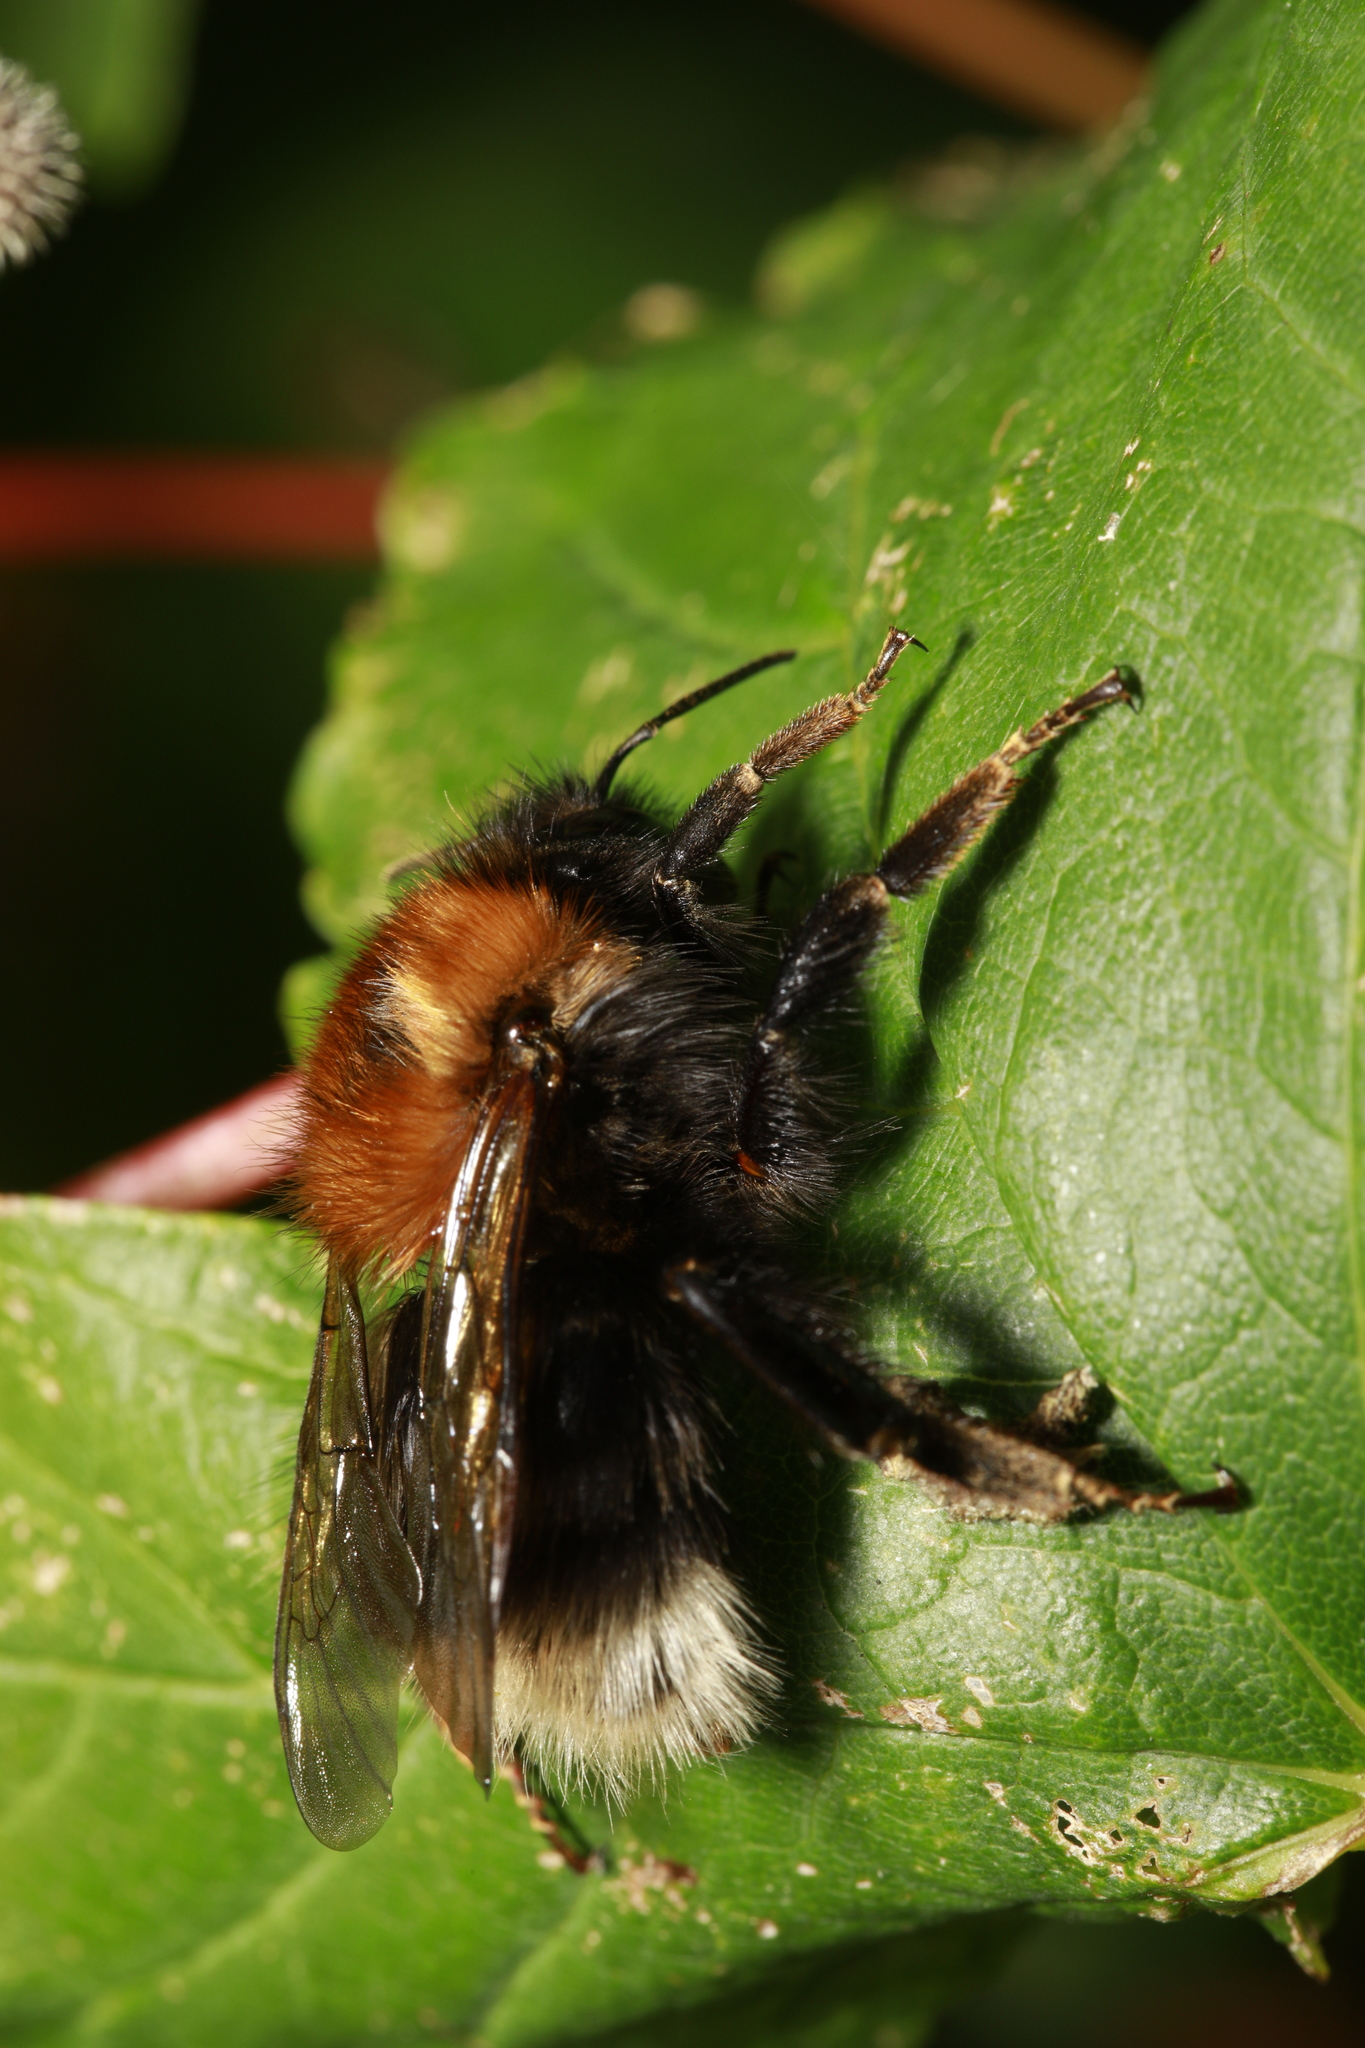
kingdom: Animalia
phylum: Arthropoda
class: Insecta
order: Hymenoptera
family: Apidae
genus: Bombus
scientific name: Bombus hypnorum
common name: New garden bumblebee
